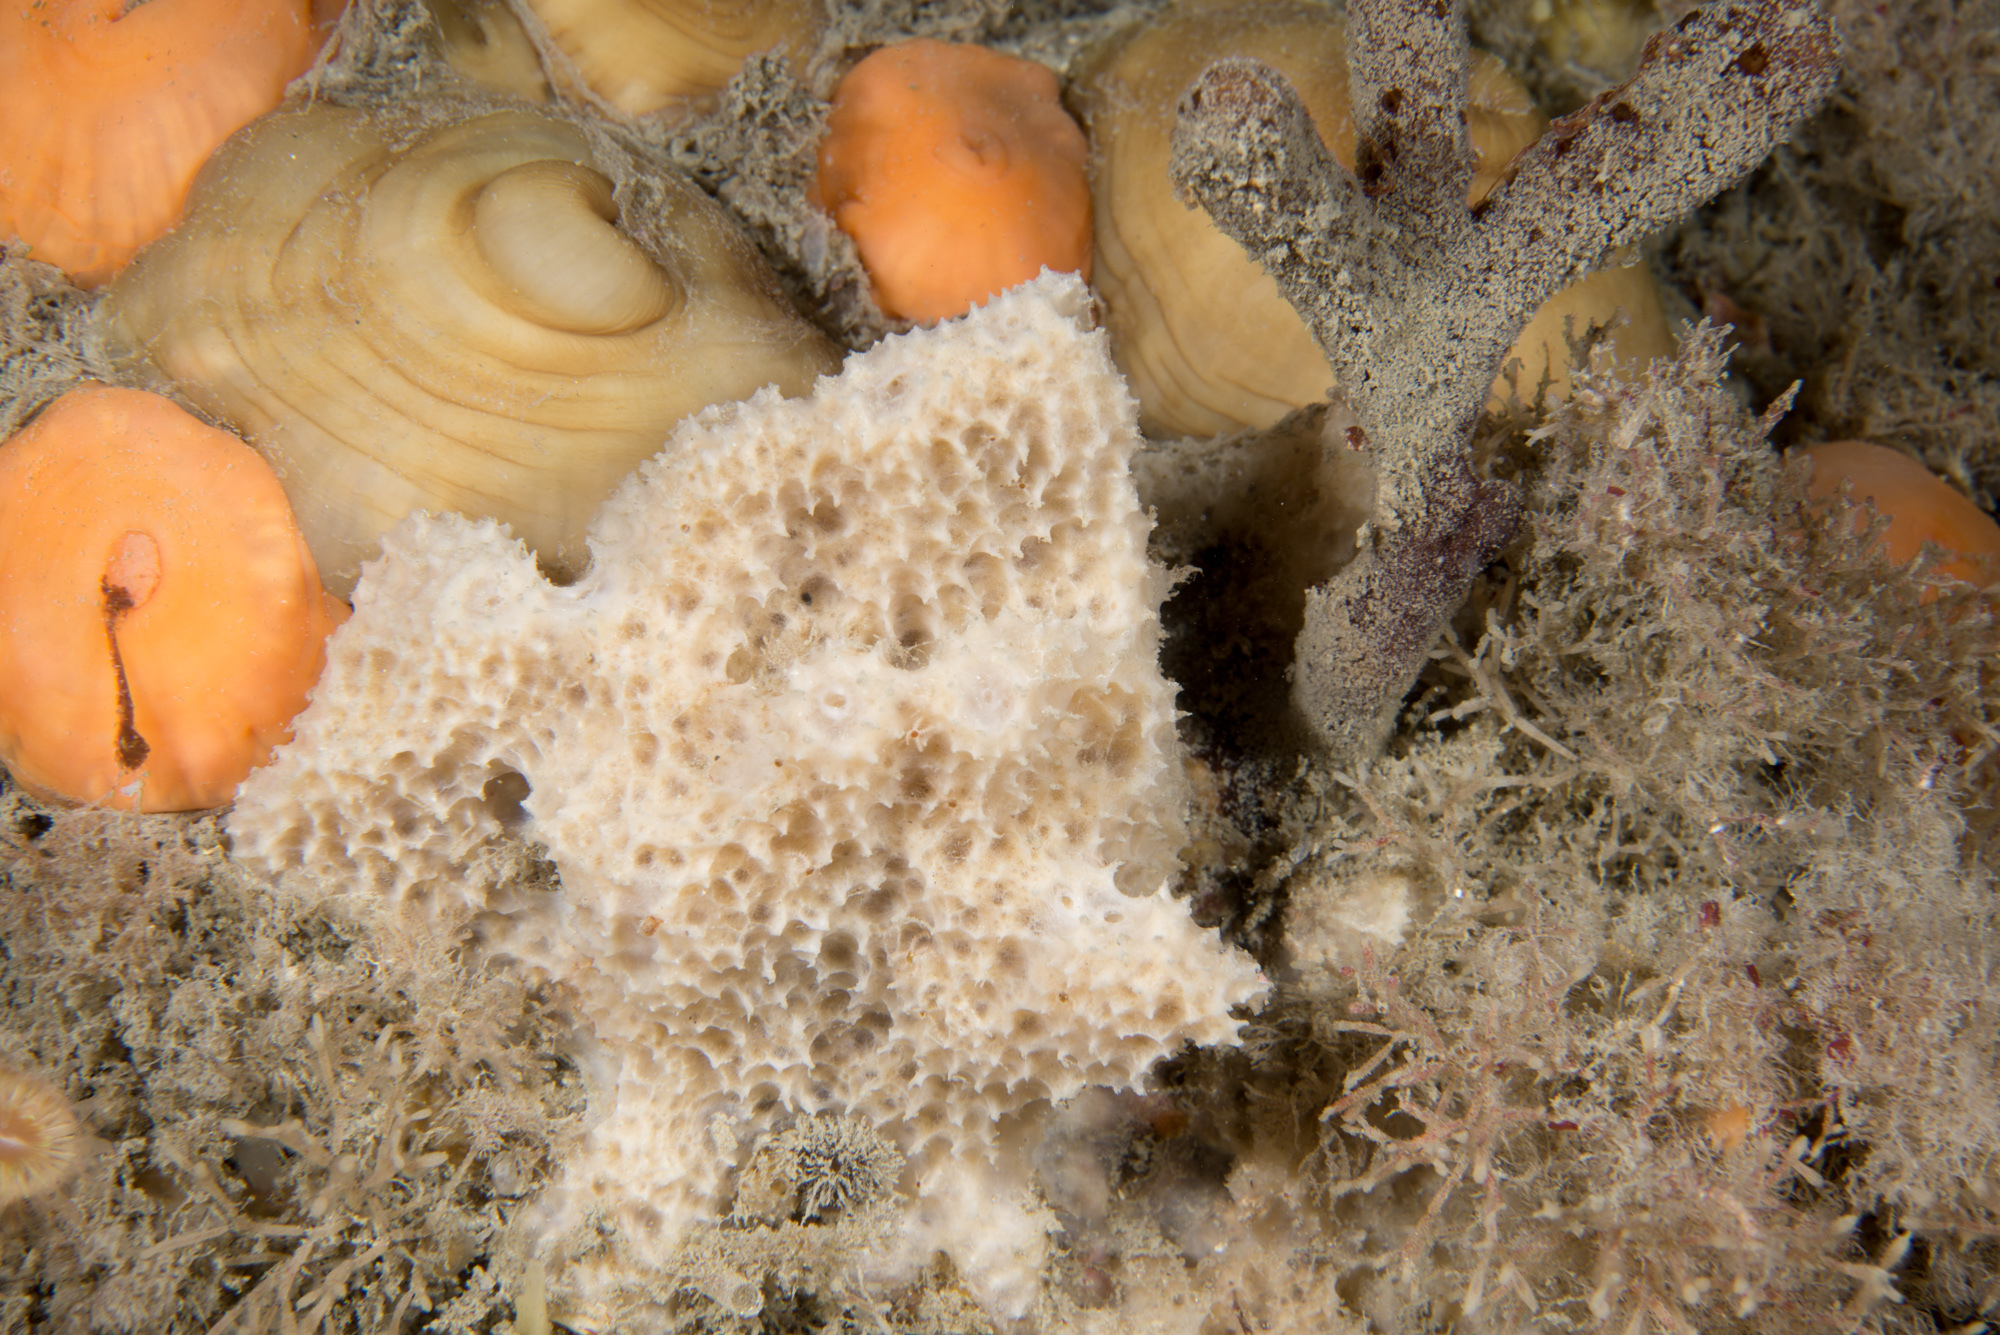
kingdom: Animalia
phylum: Porifera
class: Demospongiae
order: Dictyoceratida
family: Dysideidae
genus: Dysidea
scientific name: Dysidea fragilis
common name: Goosebump sponge
